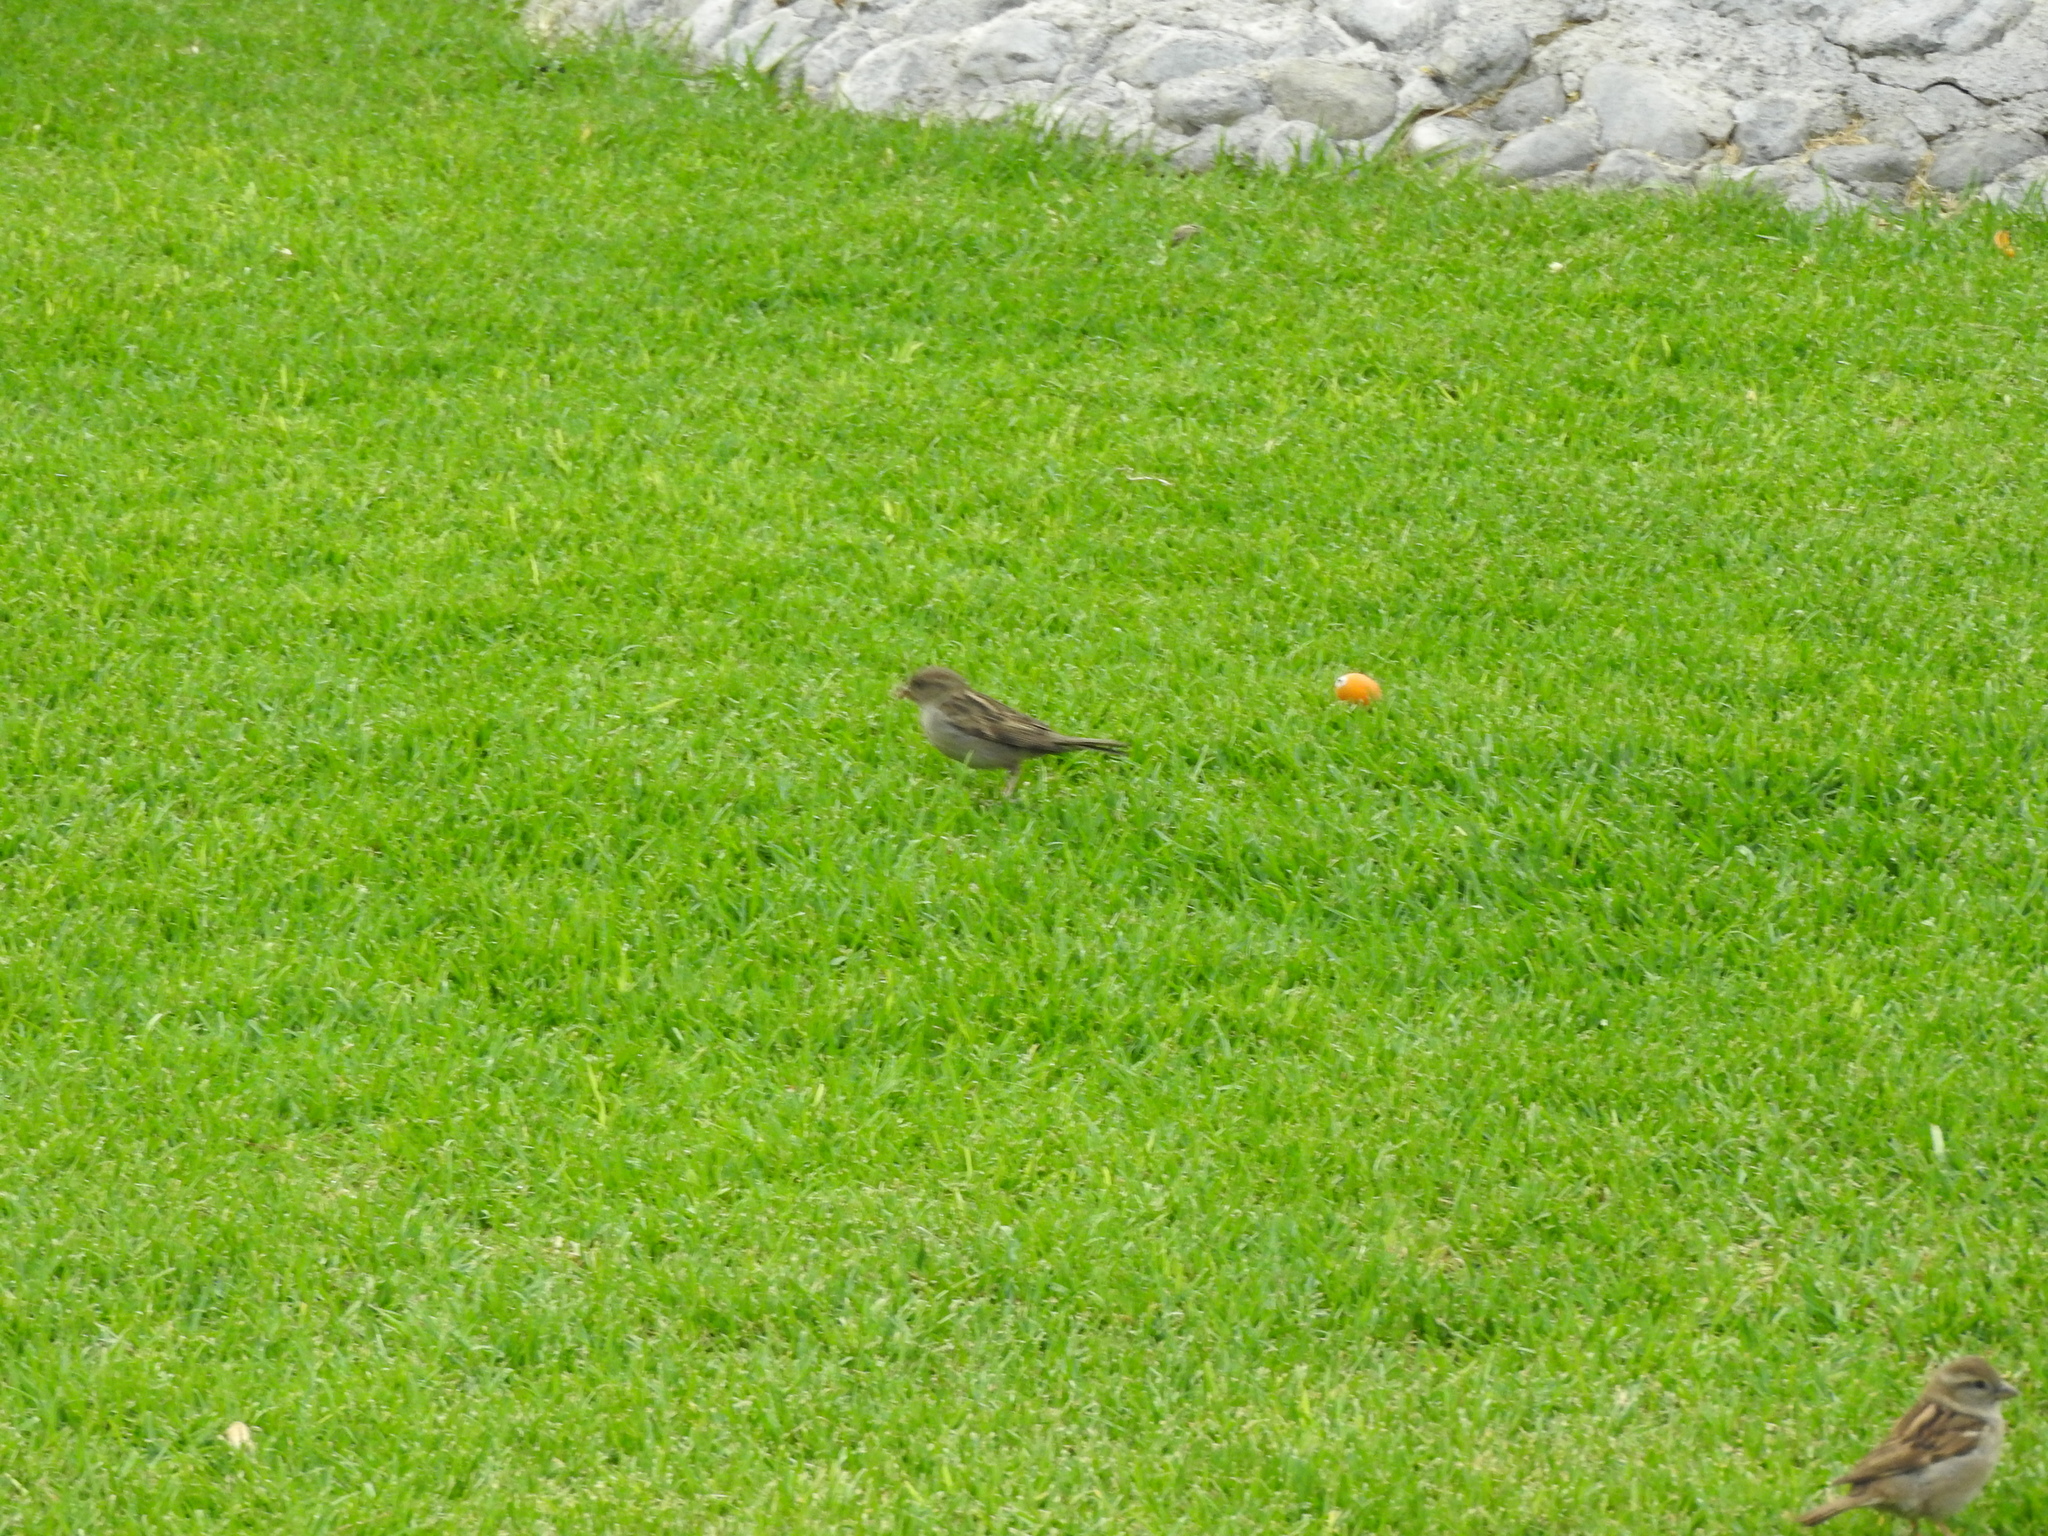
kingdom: Animalia
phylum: Chordata
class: Aves
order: Passeriformes
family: Passeridae
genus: Passer
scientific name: Passer domesticus
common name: House sparrow
